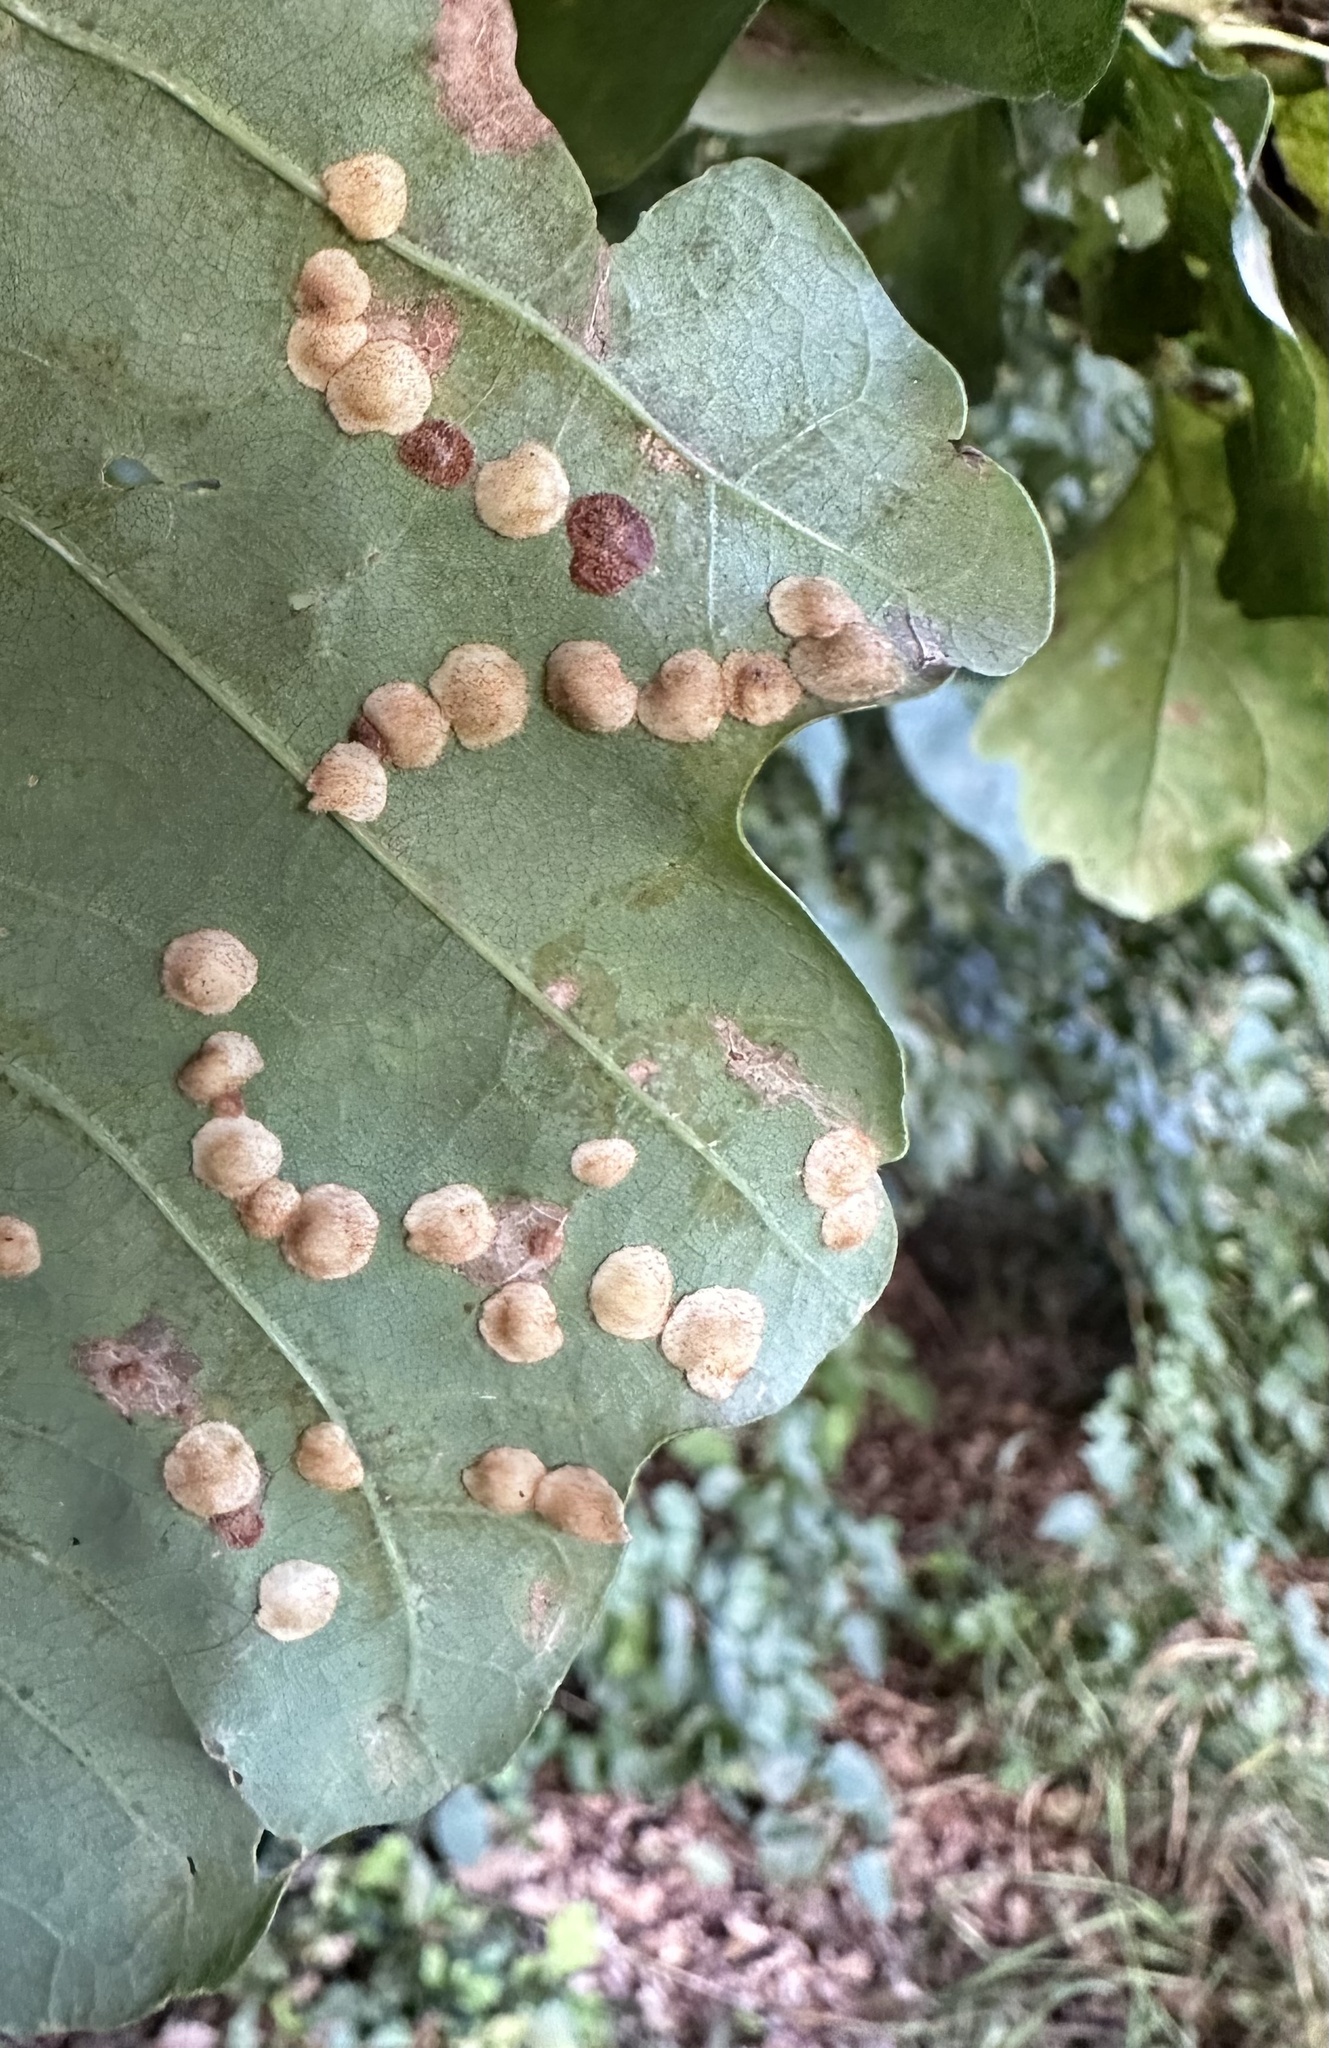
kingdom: Animalia
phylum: Arthropoda
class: Insecta
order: Hymenoptera
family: Cynipidae
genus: Neuroterus
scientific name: Neuroterus quercusbaccarum
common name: Common spangle gall
